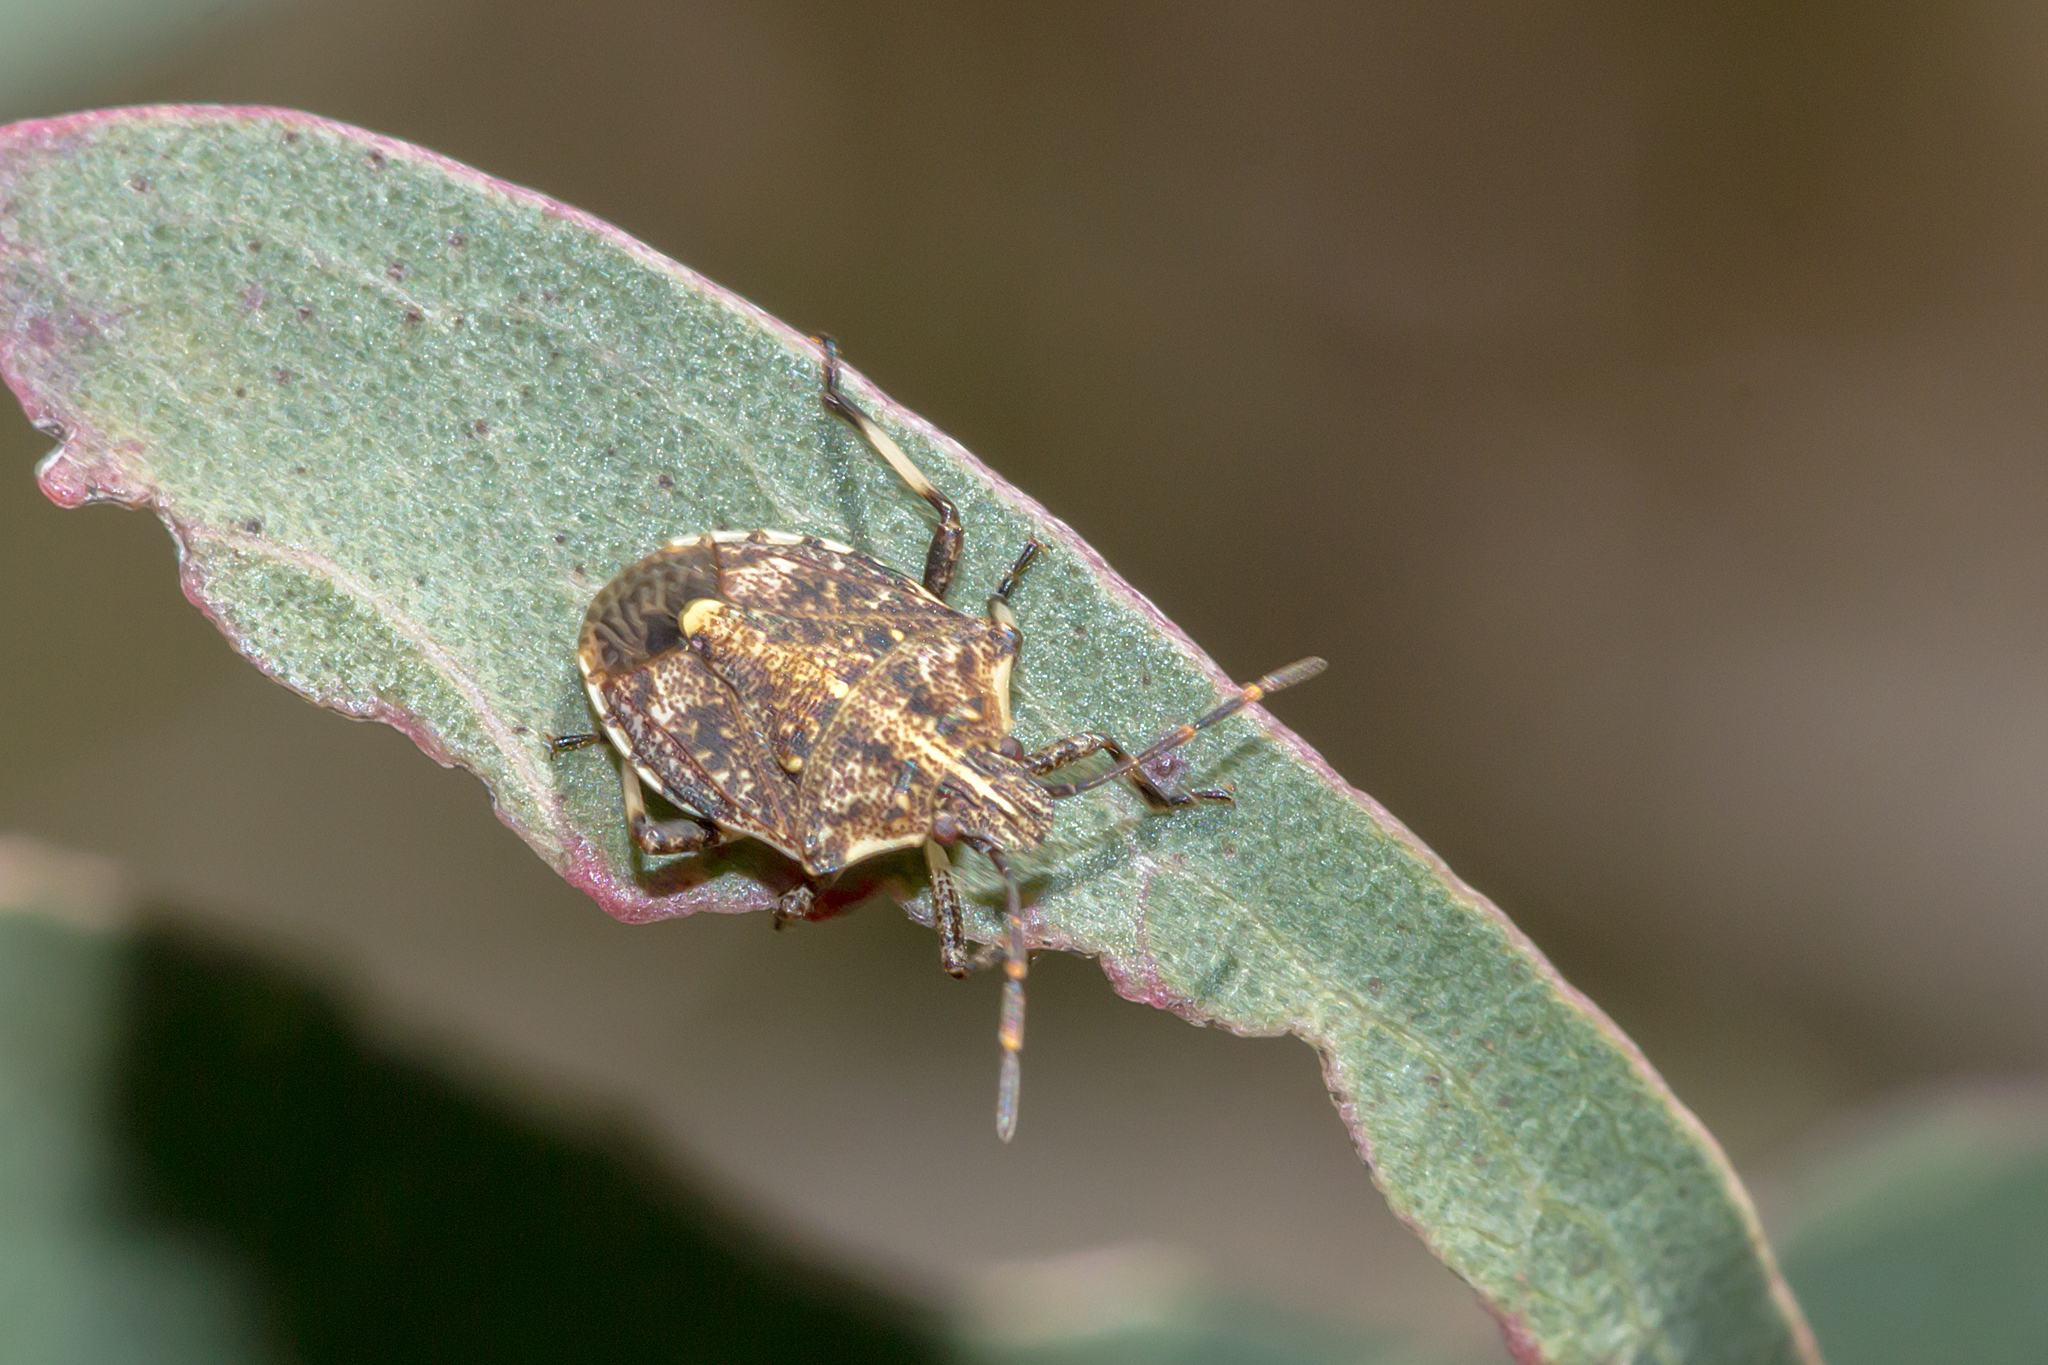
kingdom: Animalia
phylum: Arthropoda
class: Insecta
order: Hemiptera
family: Pentatomidae
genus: Oncocoris
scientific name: Oncocoris
